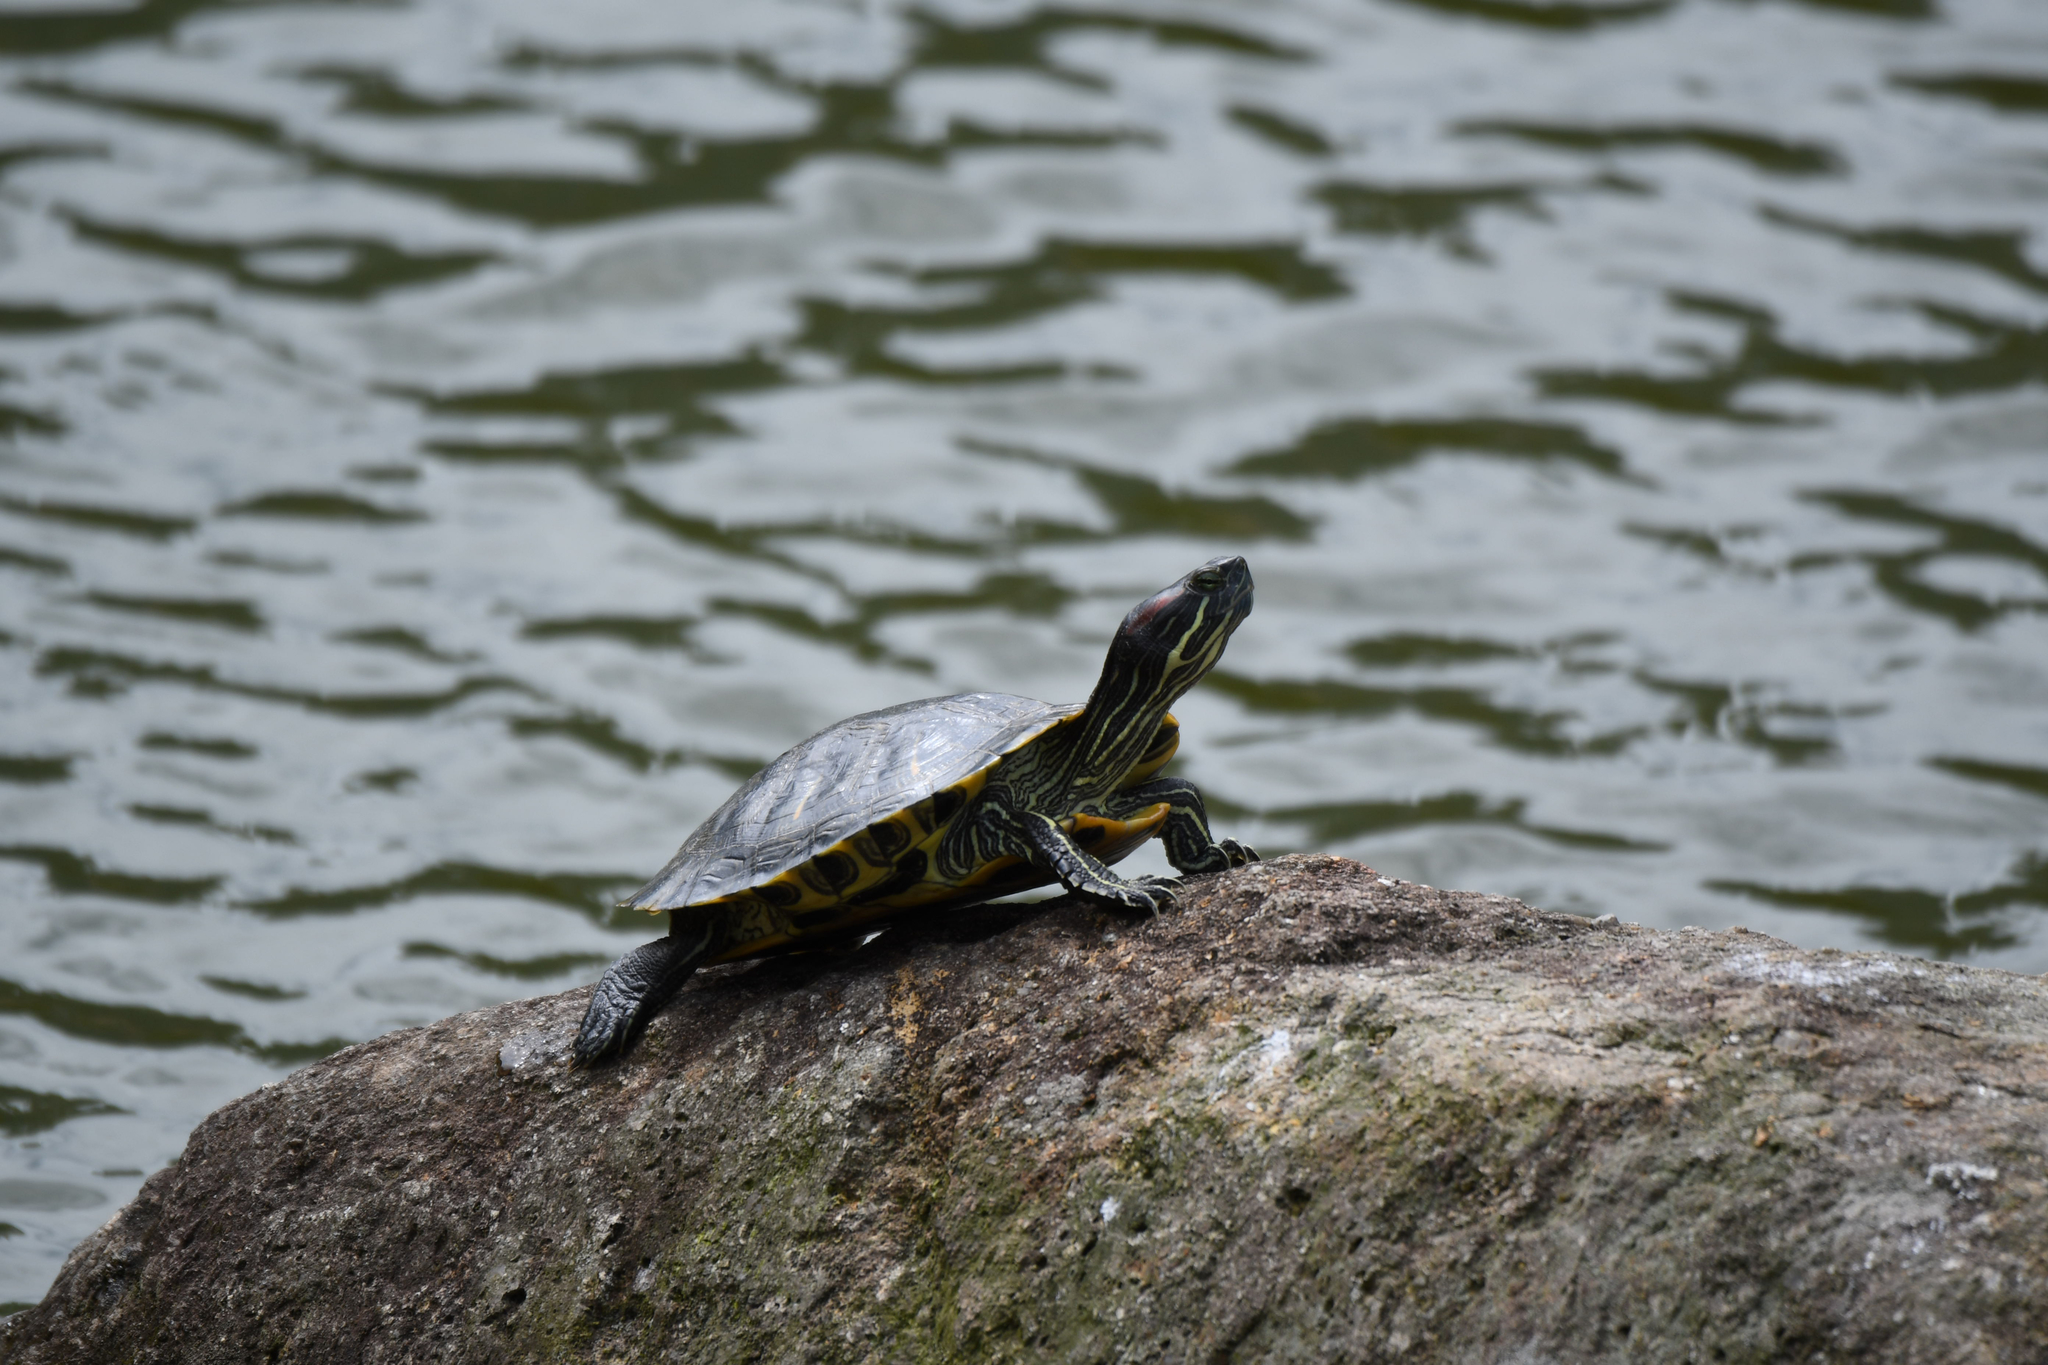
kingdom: Animalia
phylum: Chordata
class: Testudines
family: Emydidae
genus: Trachemys
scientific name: Trachemys scripta
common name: Slider
